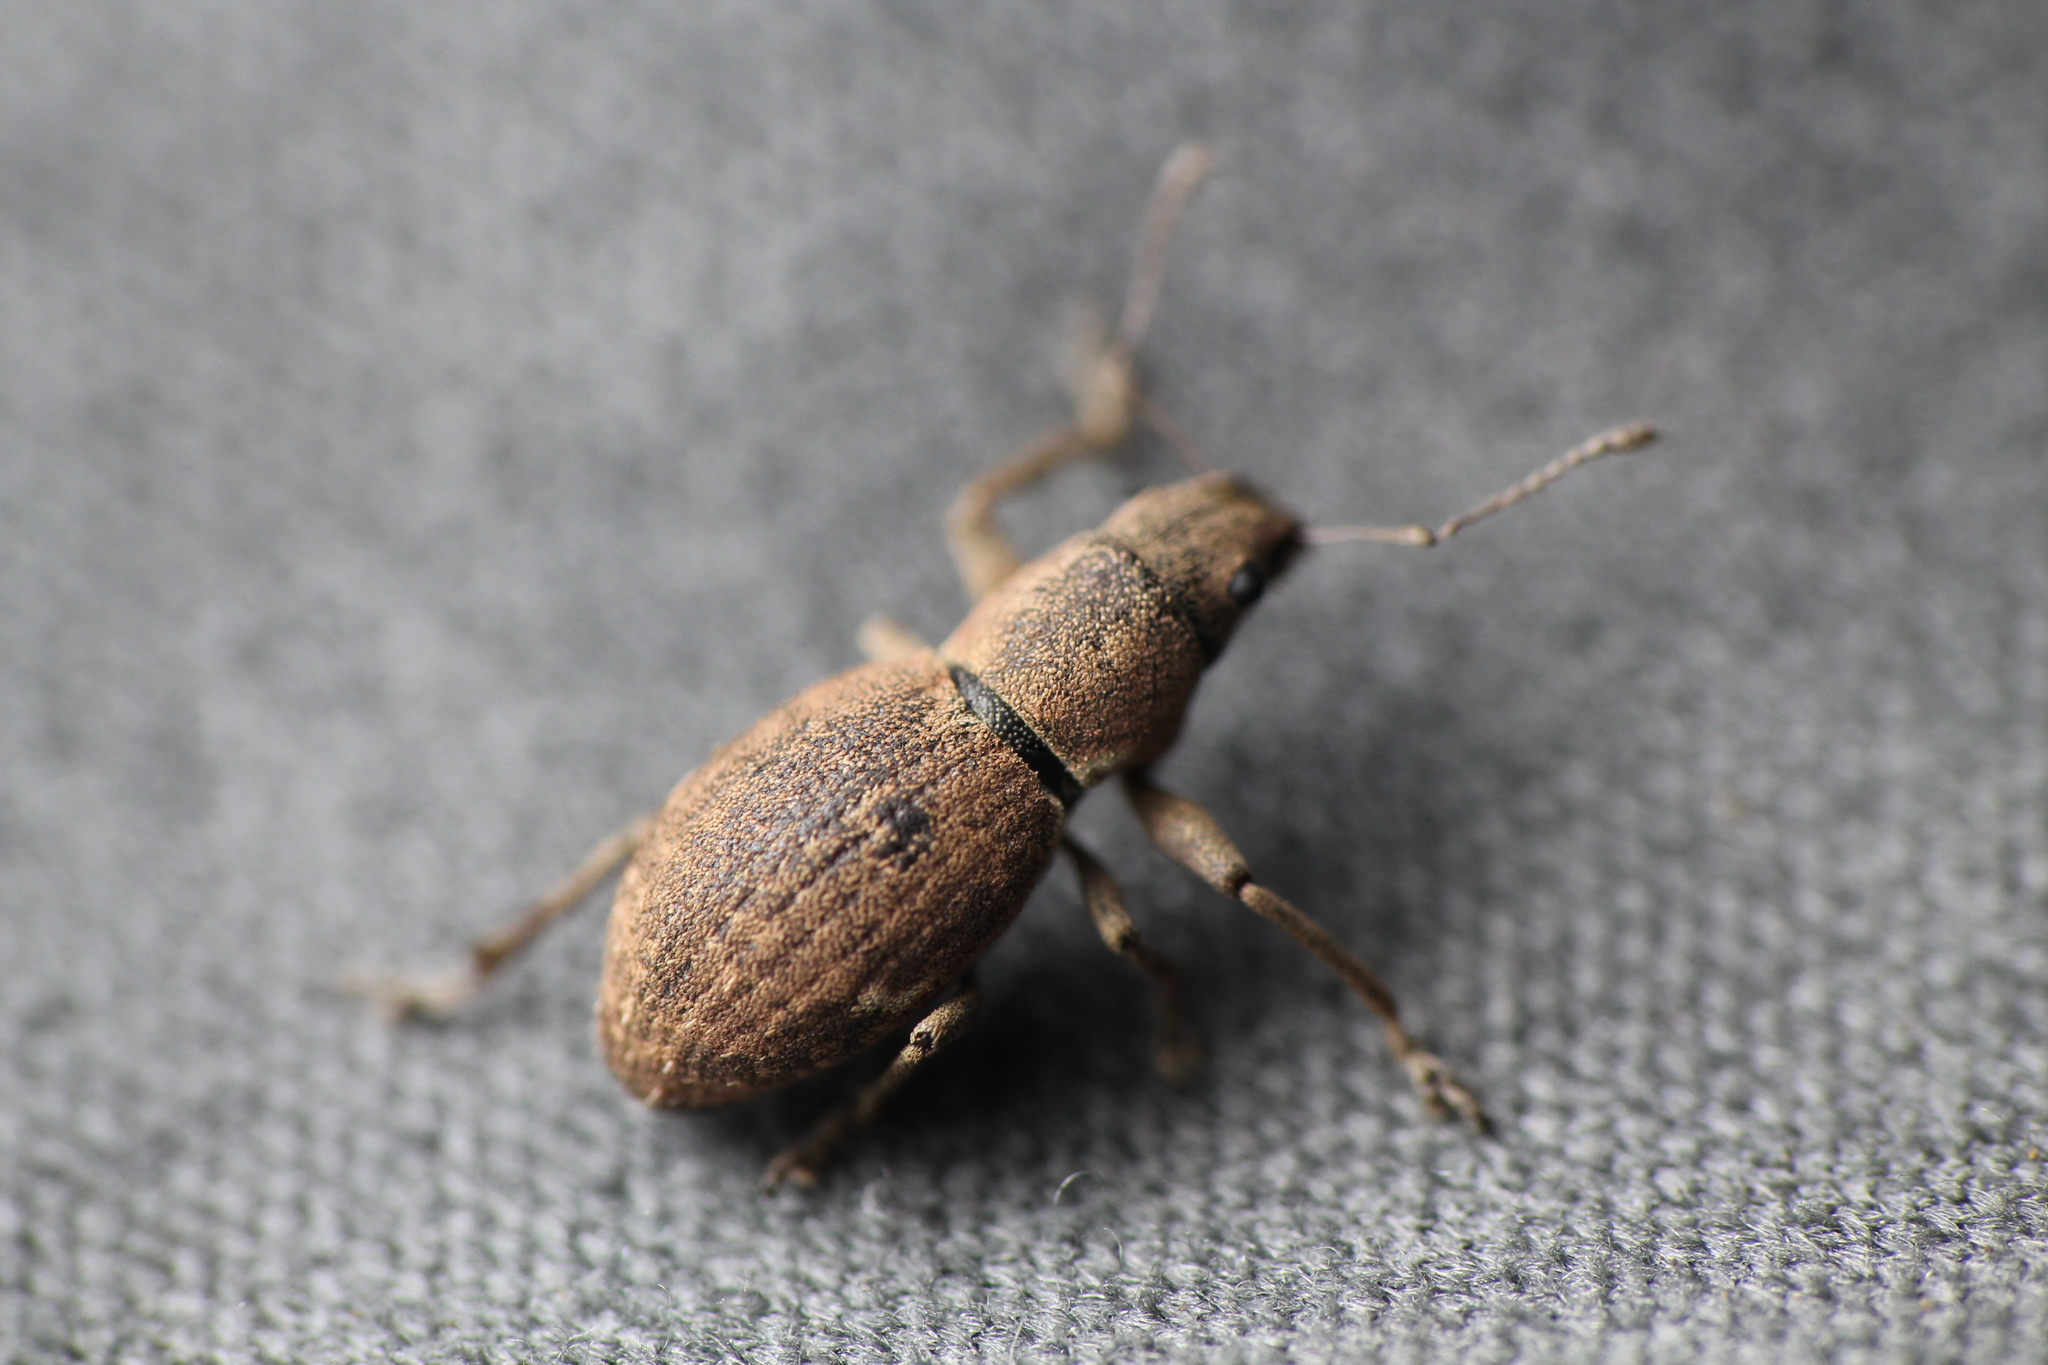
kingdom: Animalia
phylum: Arthropoda
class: Insecta
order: Coleoptera
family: Curculionidae
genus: Naupactus
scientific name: Naupactus cervinus
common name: Fuller rose beetle
